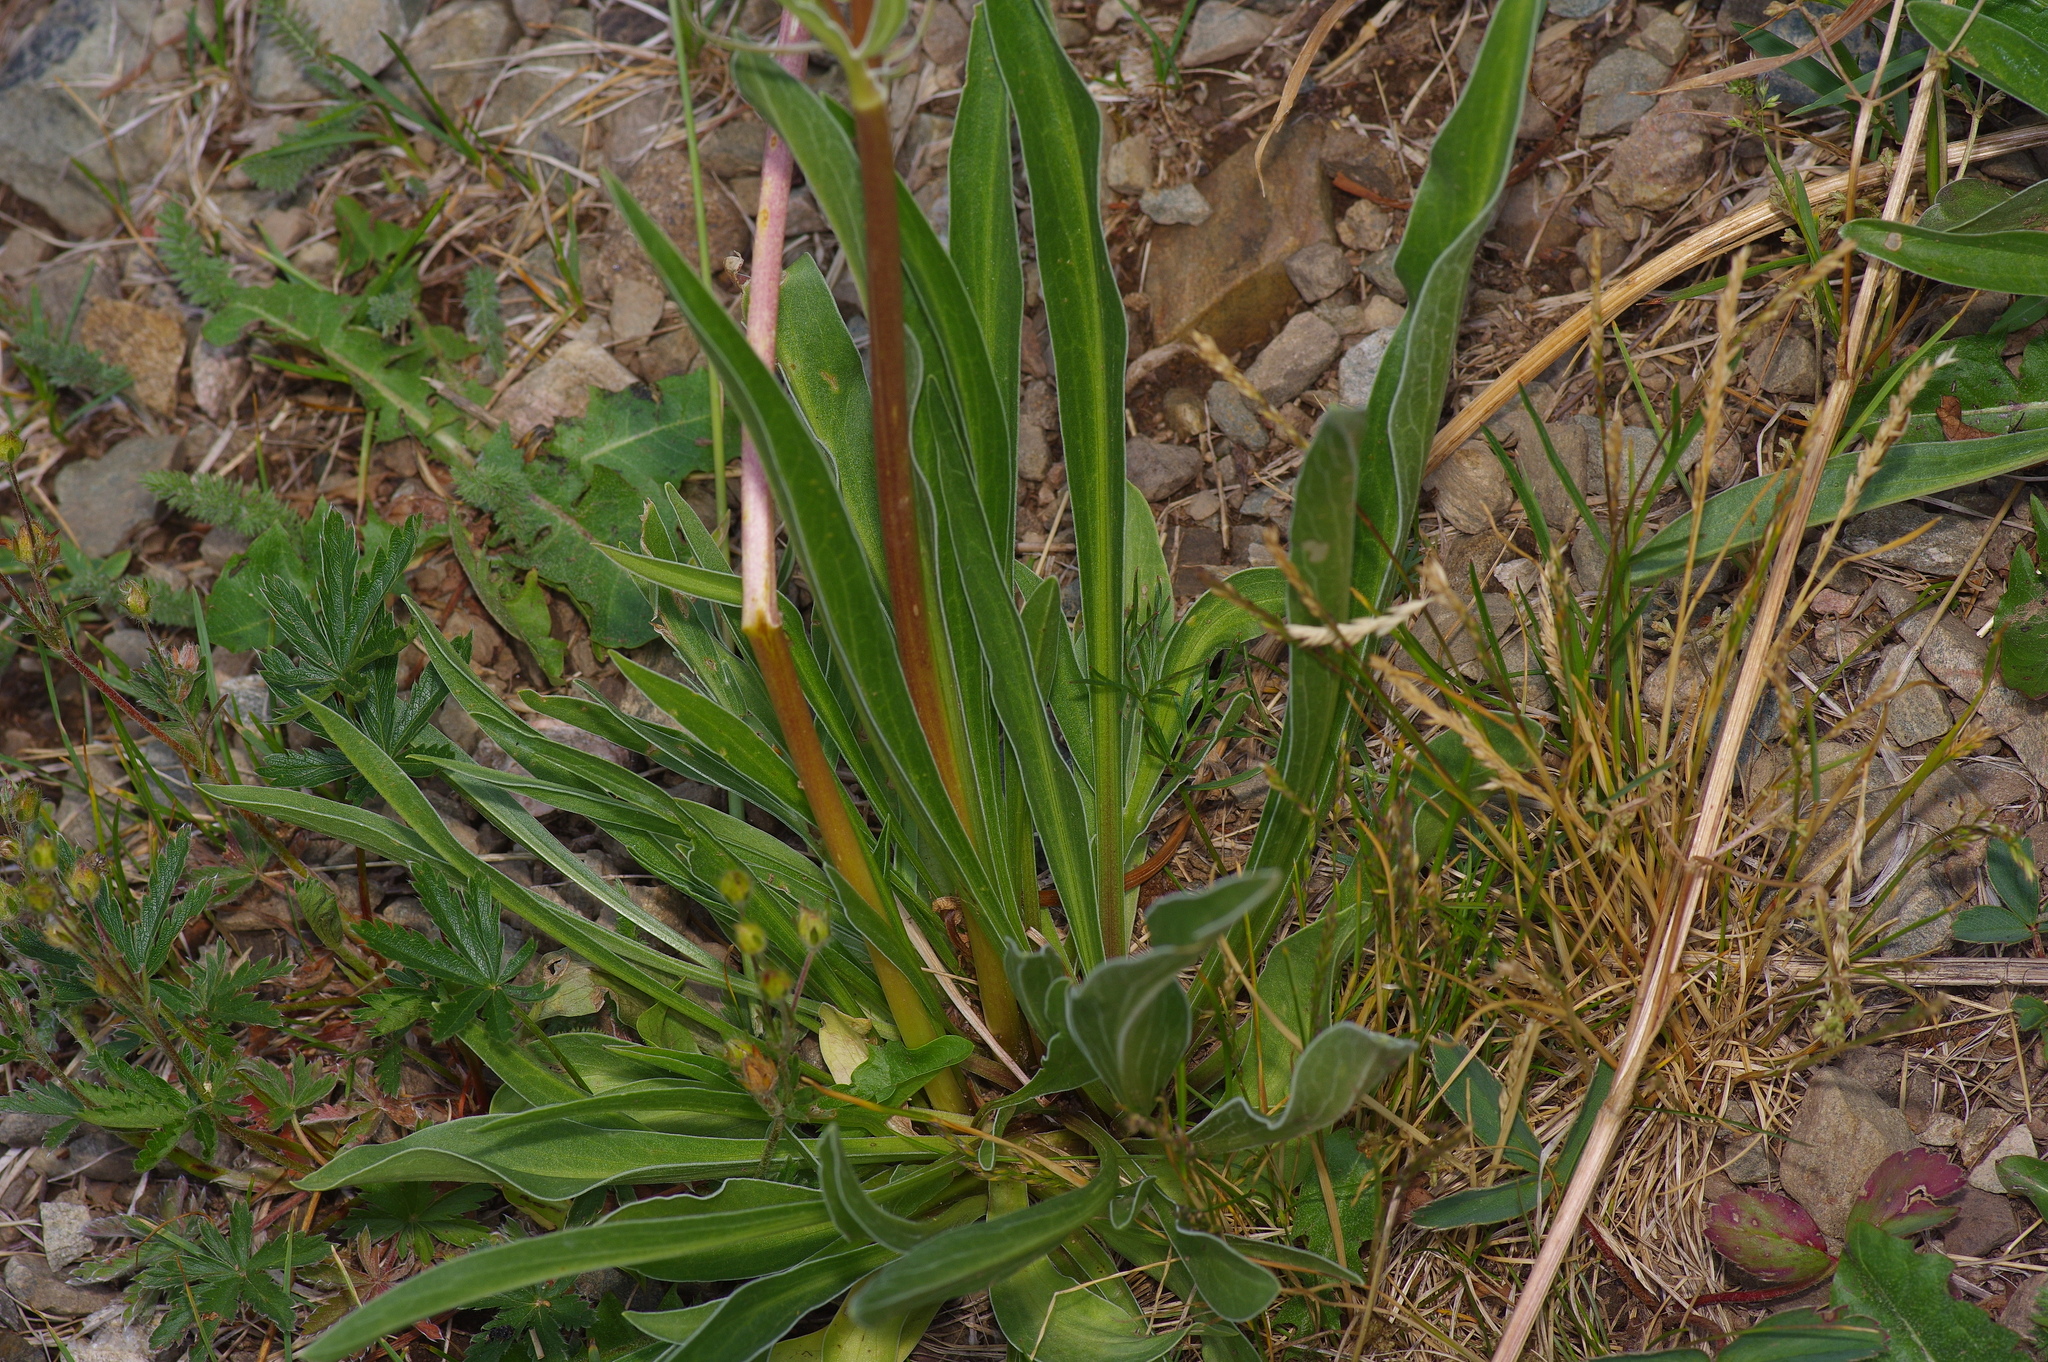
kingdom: Plantae
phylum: Tracheophyta
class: Magnoliopsida
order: Asterales
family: Asteraceae
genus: Agoseris
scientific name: Agoseris aurantiaca
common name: Mountain agoseris
